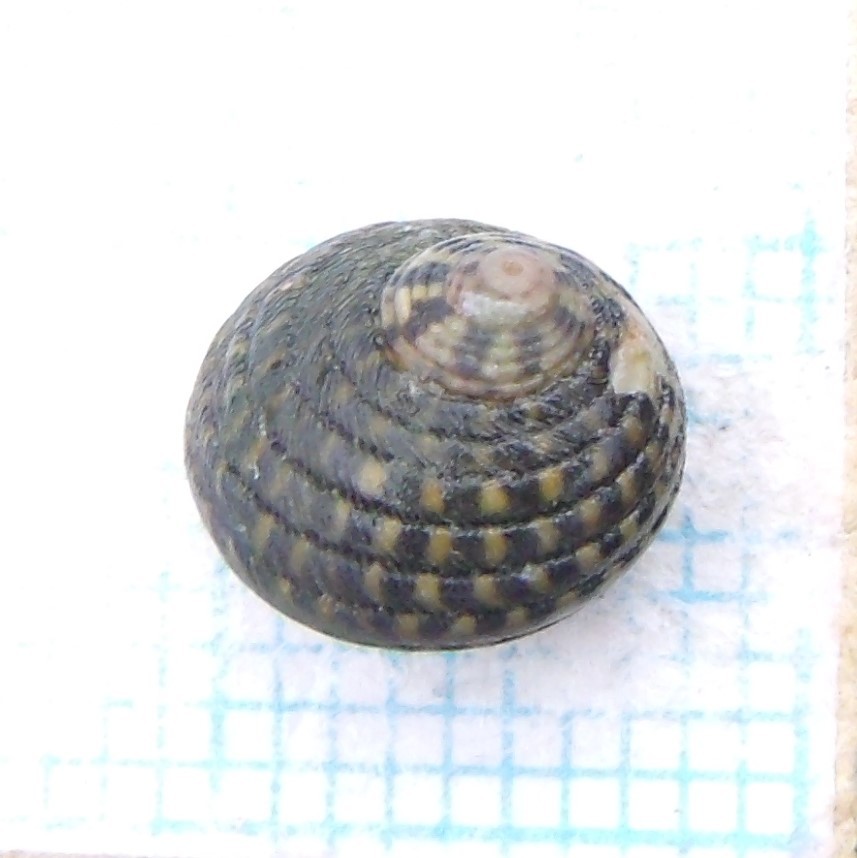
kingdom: Animalia
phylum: Mollusca
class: Gastropoda
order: Trochida
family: Trochidae
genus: Diloma
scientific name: Diloma aethiops
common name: Scorched monodont
